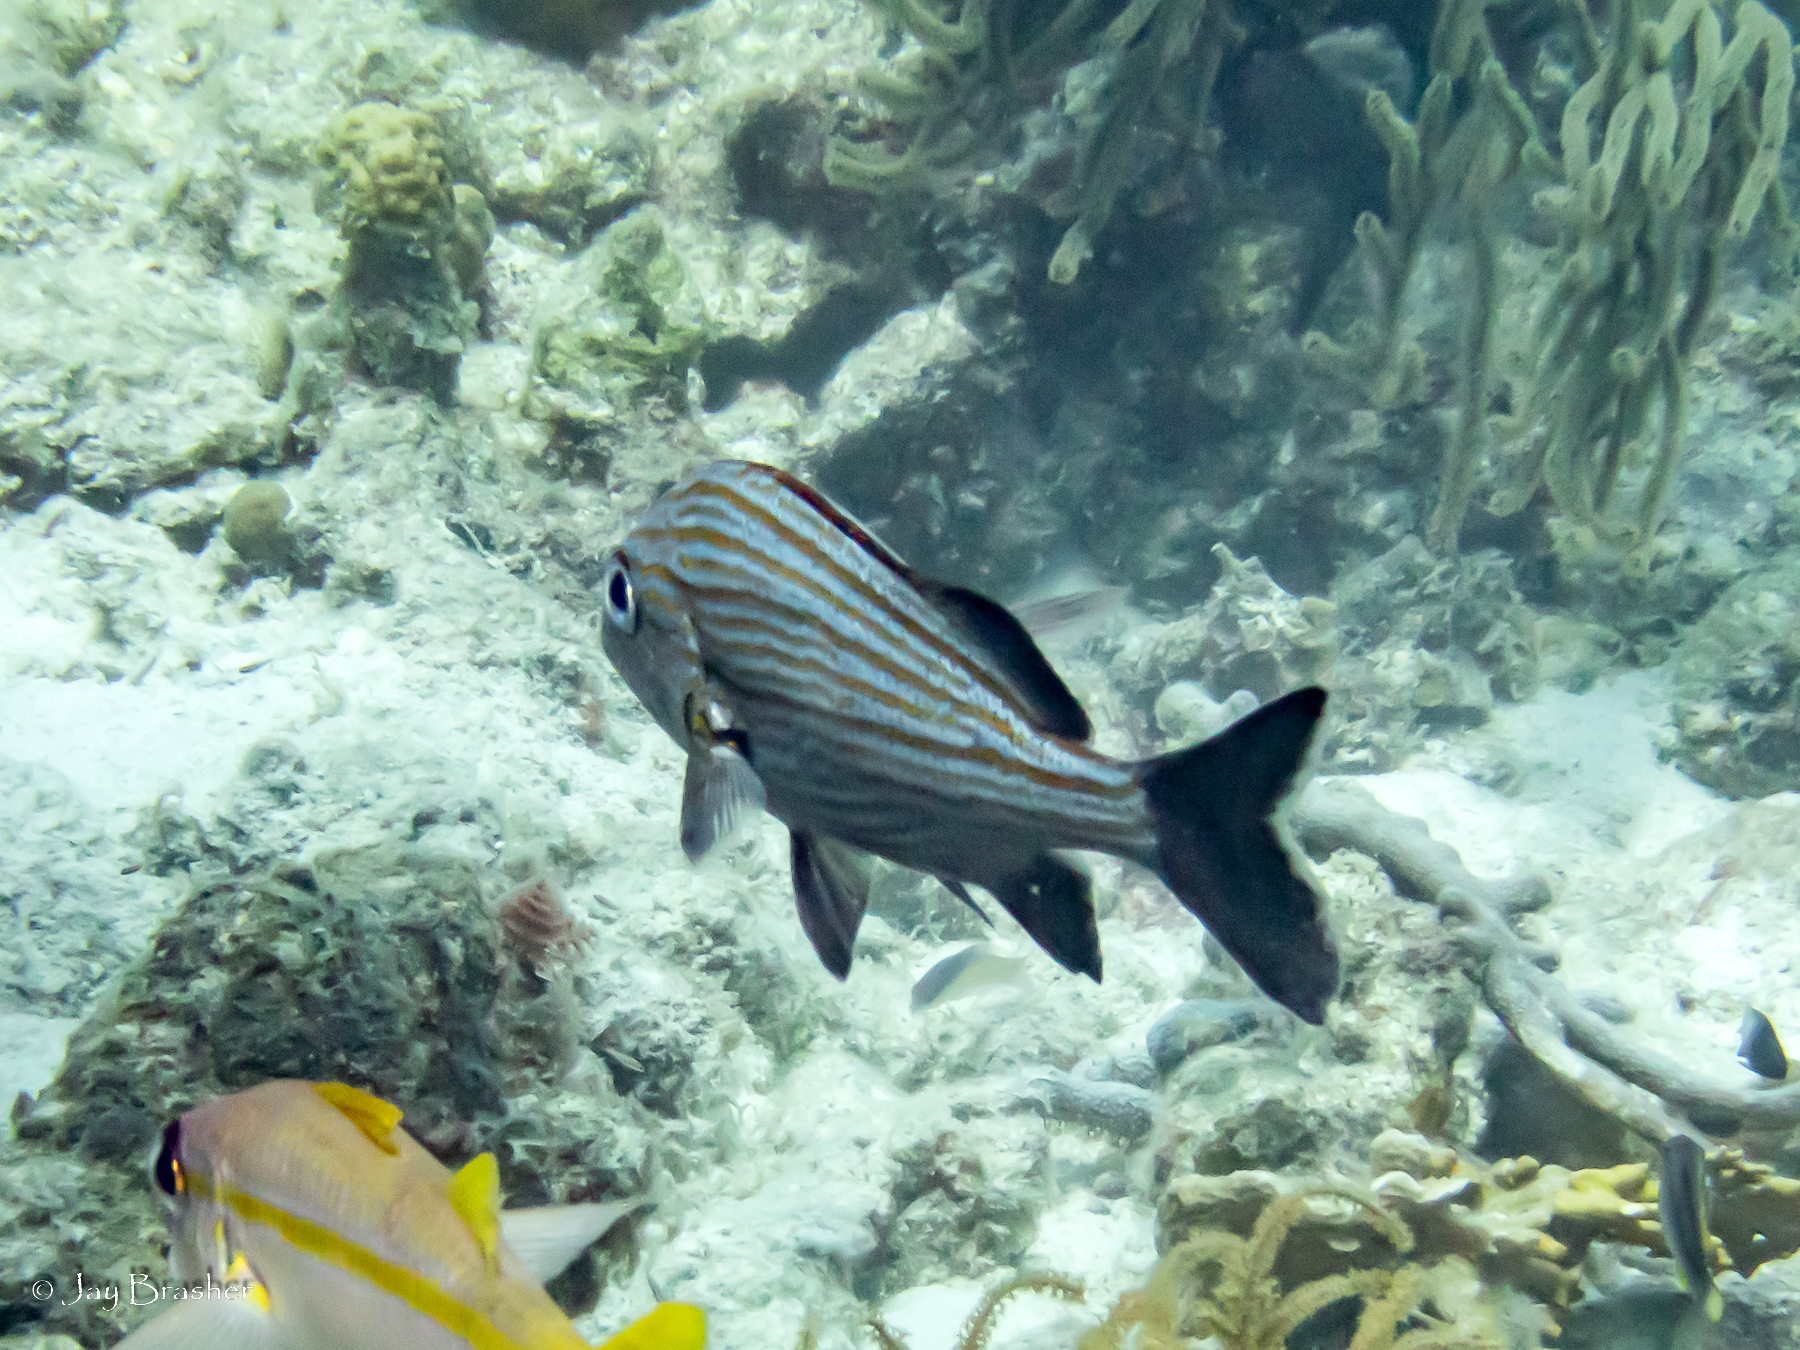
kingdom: Animalia
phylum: Chordata
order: Perciformes
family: Haemulidae
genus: Haemulon
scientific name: Haemulon carbonarium
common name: Caesar grunt
